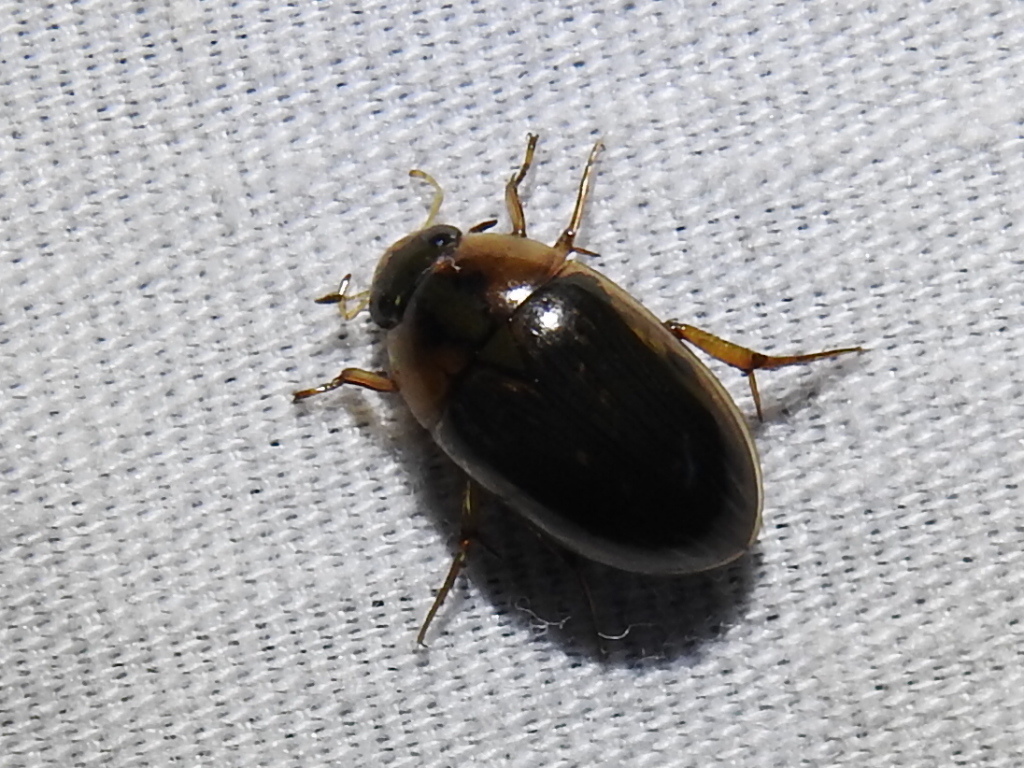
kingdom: Animalia
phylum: Arthropoda
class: Insecta
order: Coleoptera
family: Hydrophilidae
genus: Tropisternus
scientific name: Tropisternus collaris
